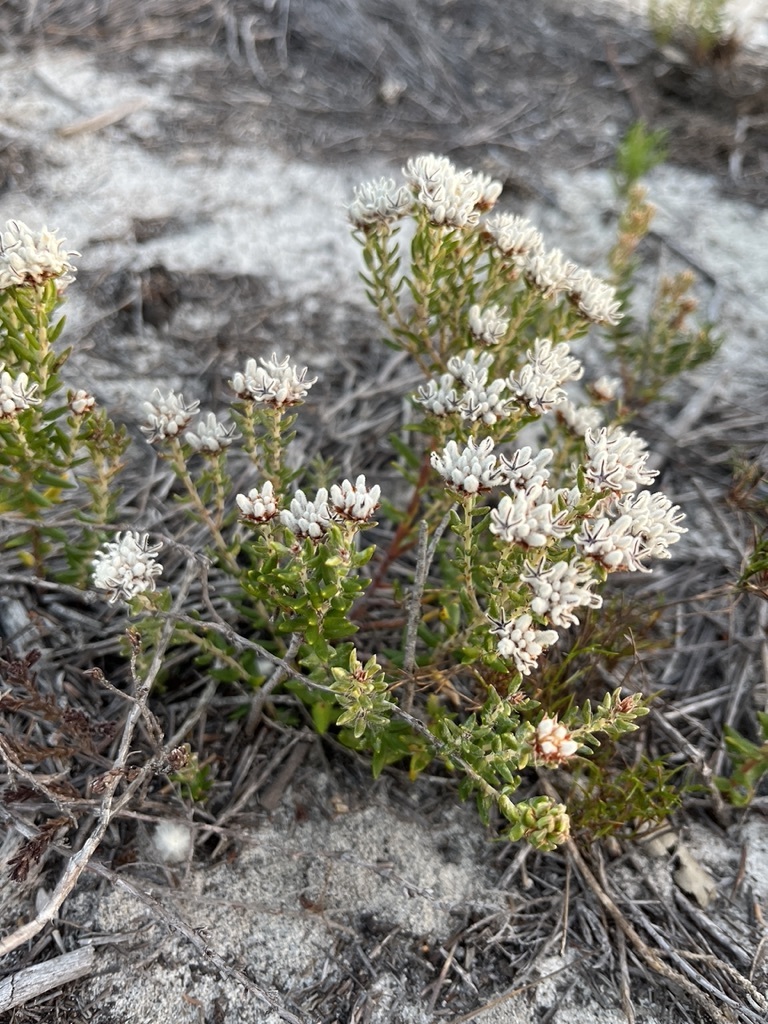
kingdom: Plantae
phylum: Tracheophyta
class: Magnoliopsida
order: Rosales
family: Rhamnaceae
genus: Trichocephalus
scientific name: Trichocephalus stipularis
